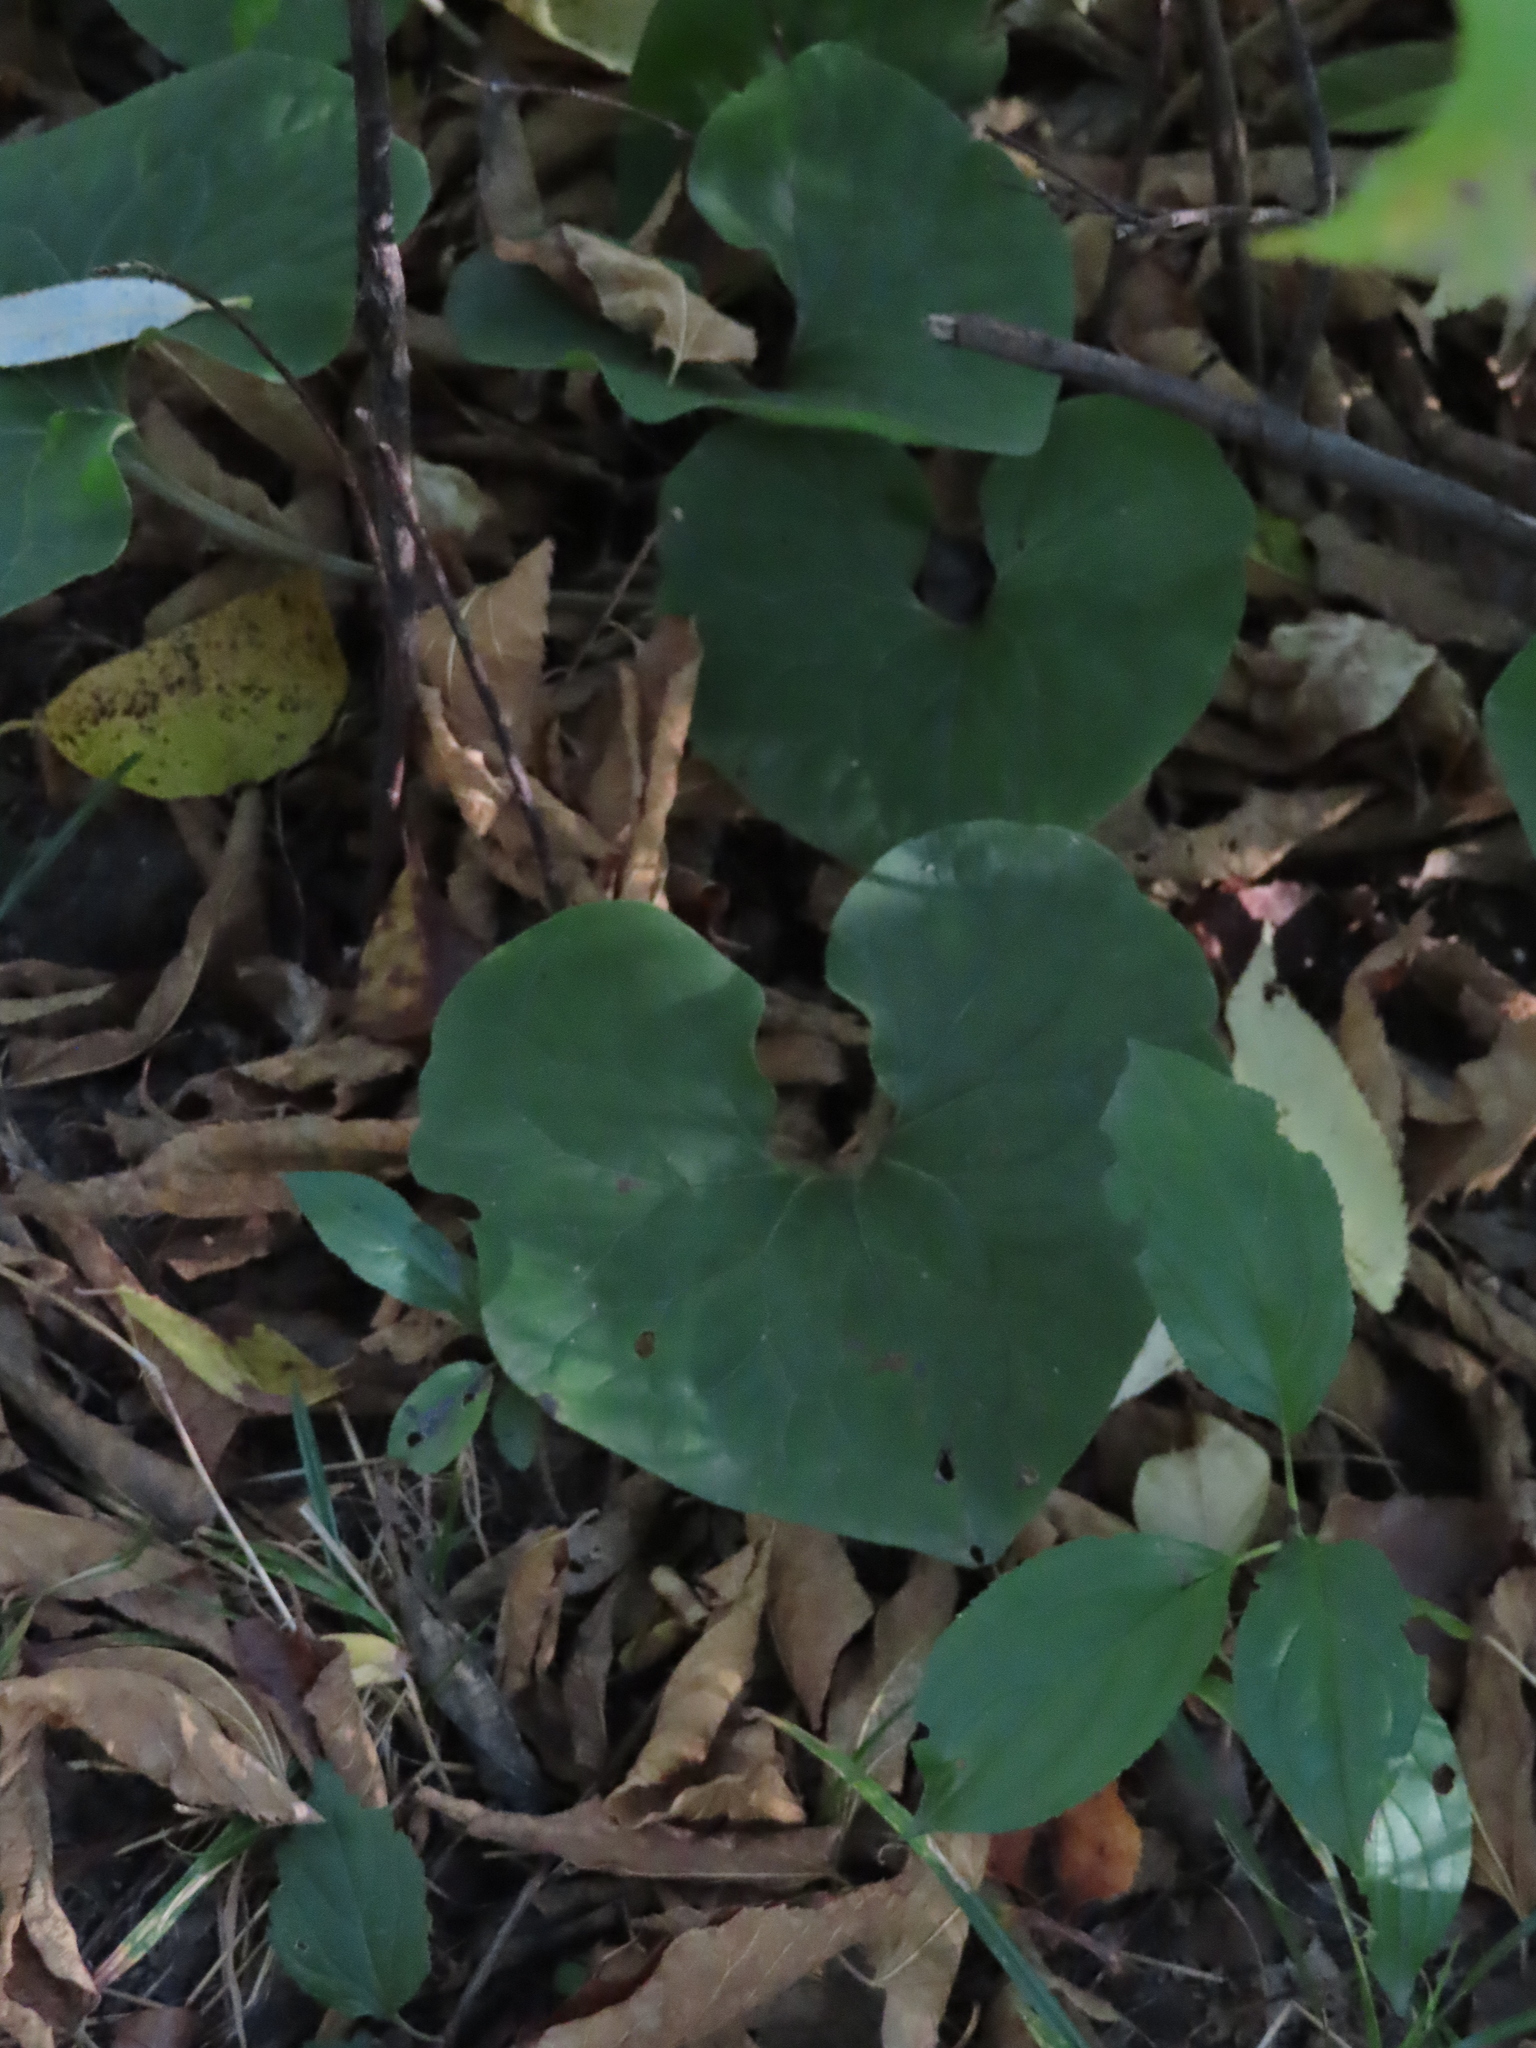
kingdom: Plantae
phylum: Tracheophyta
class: Magnoliopsida
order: Piperales
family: Aristolochiaceae
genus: Asarum
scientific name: Asarum canadense
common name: Wild ginger
